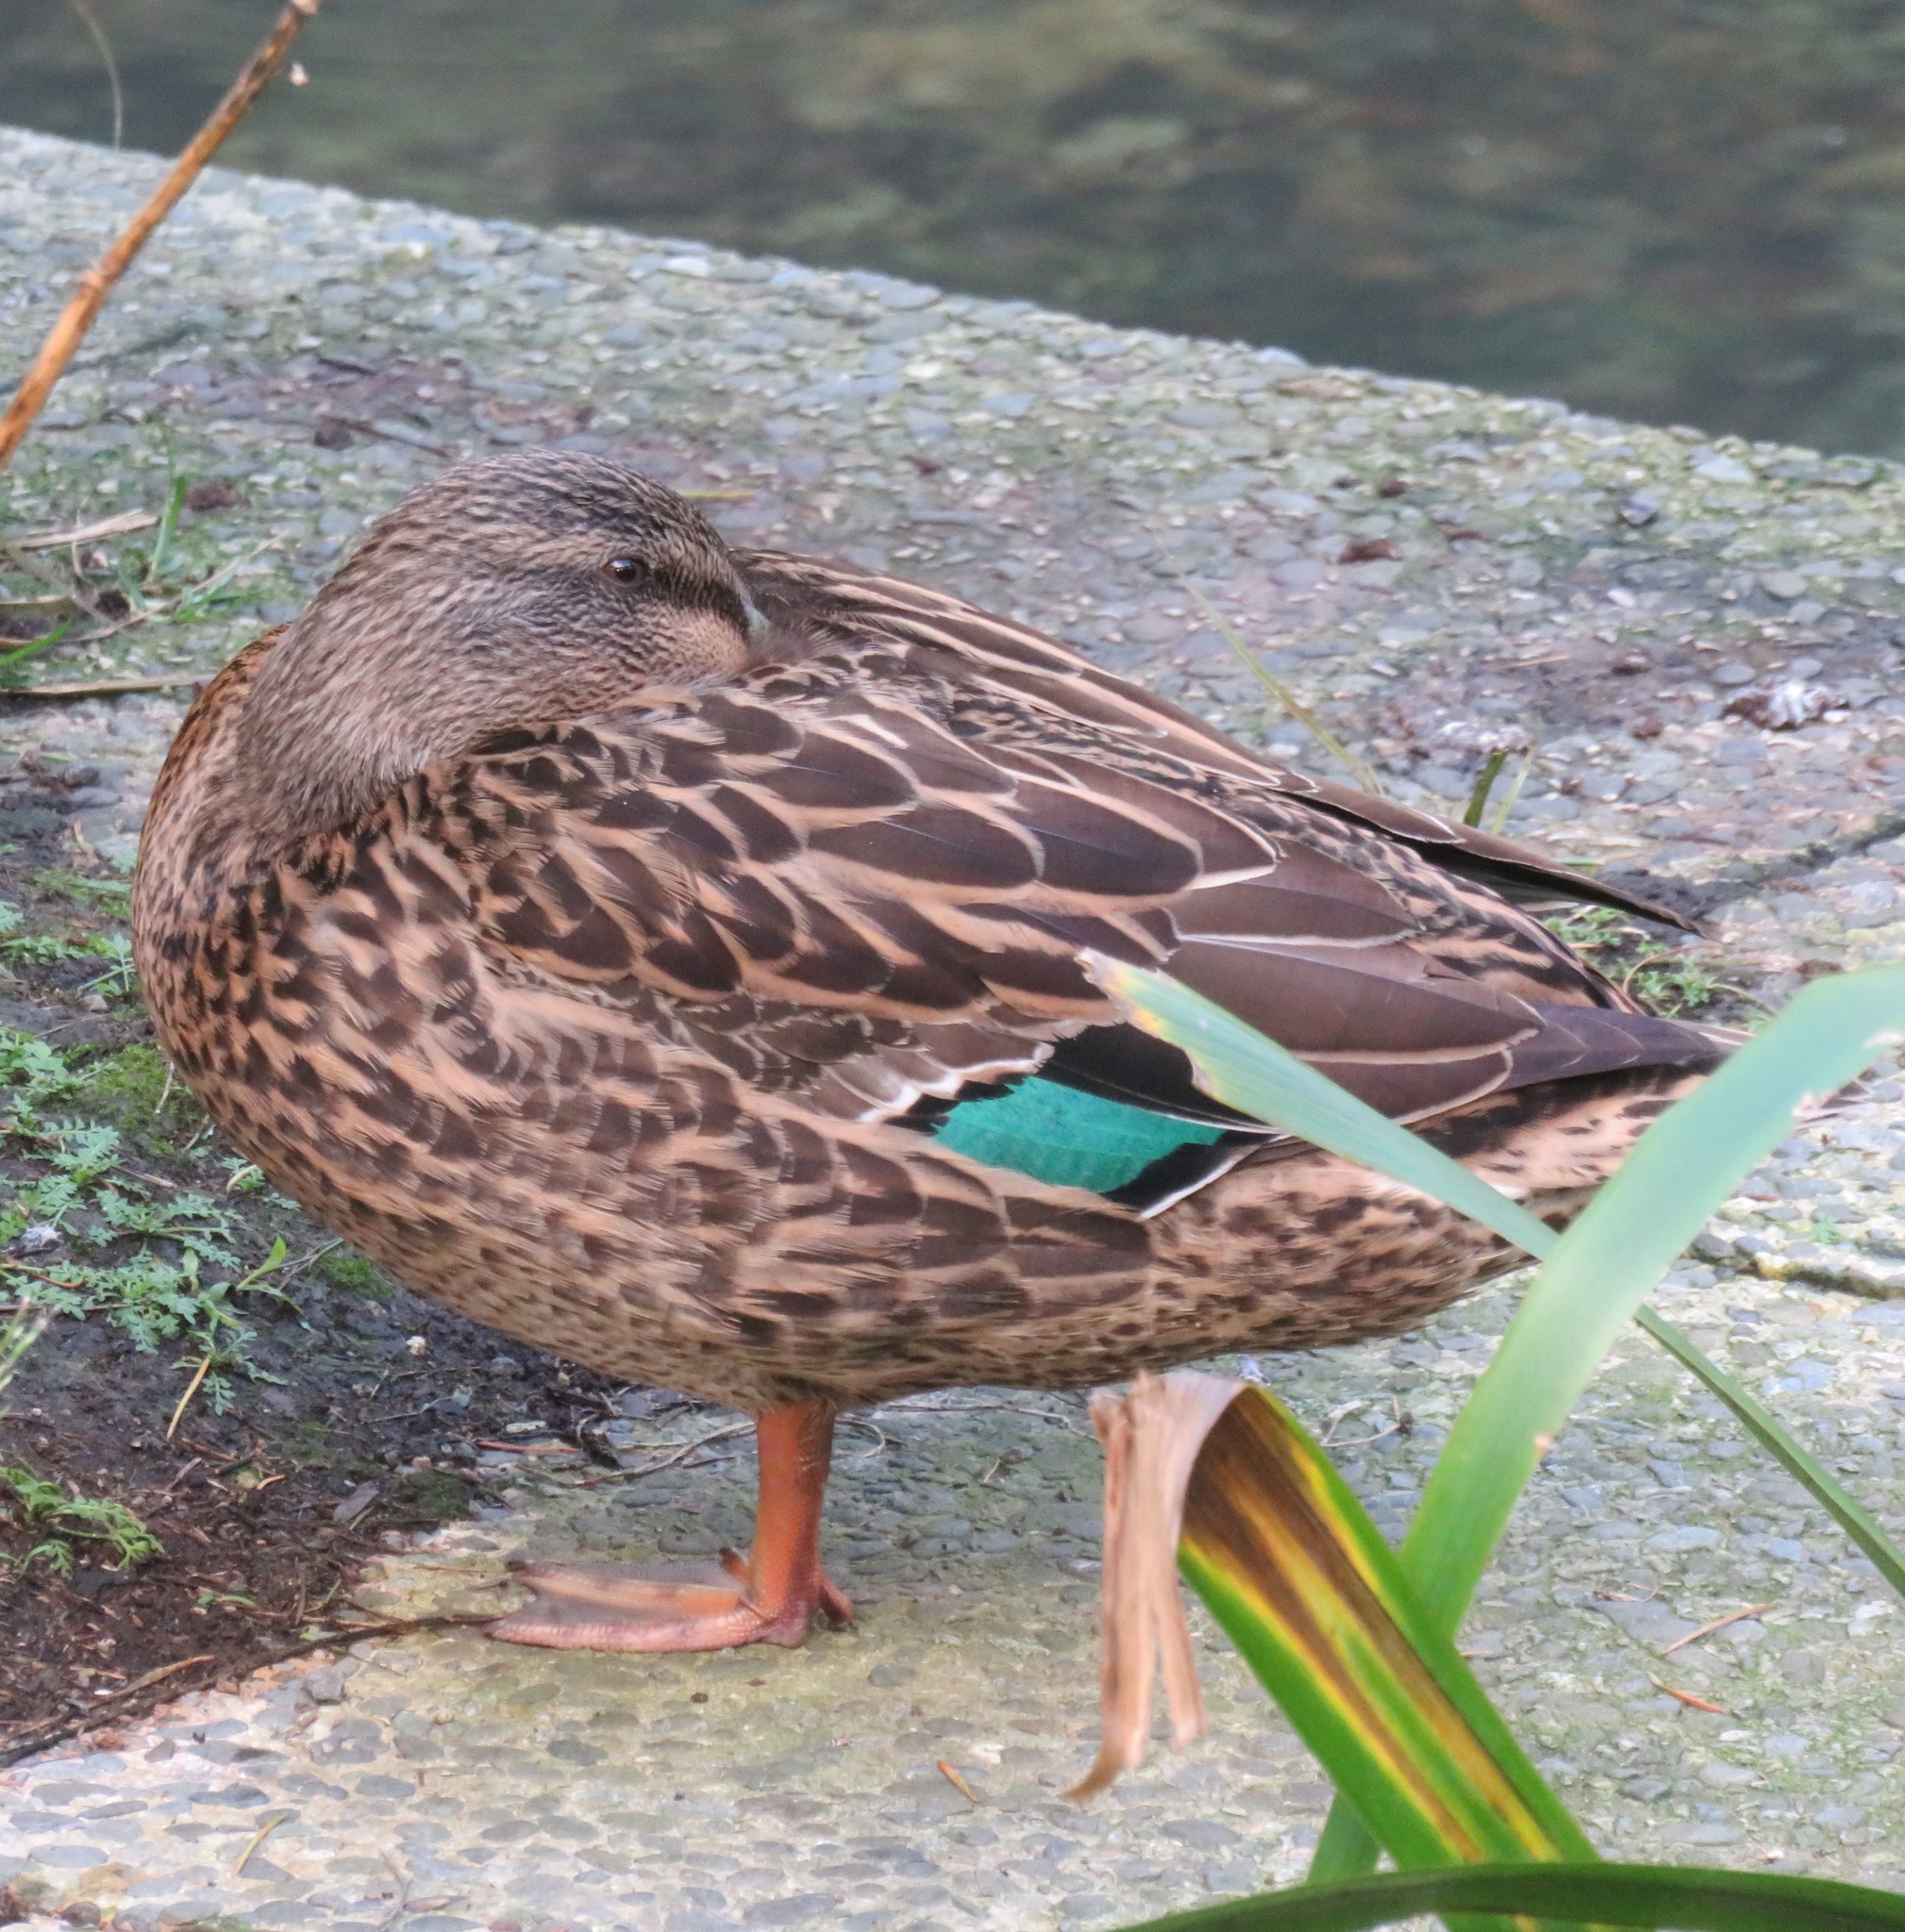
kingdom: Animalia
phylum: Chordata
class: Aves
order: Anseriformes
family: Anatidae
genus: Anas
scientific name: Anas
